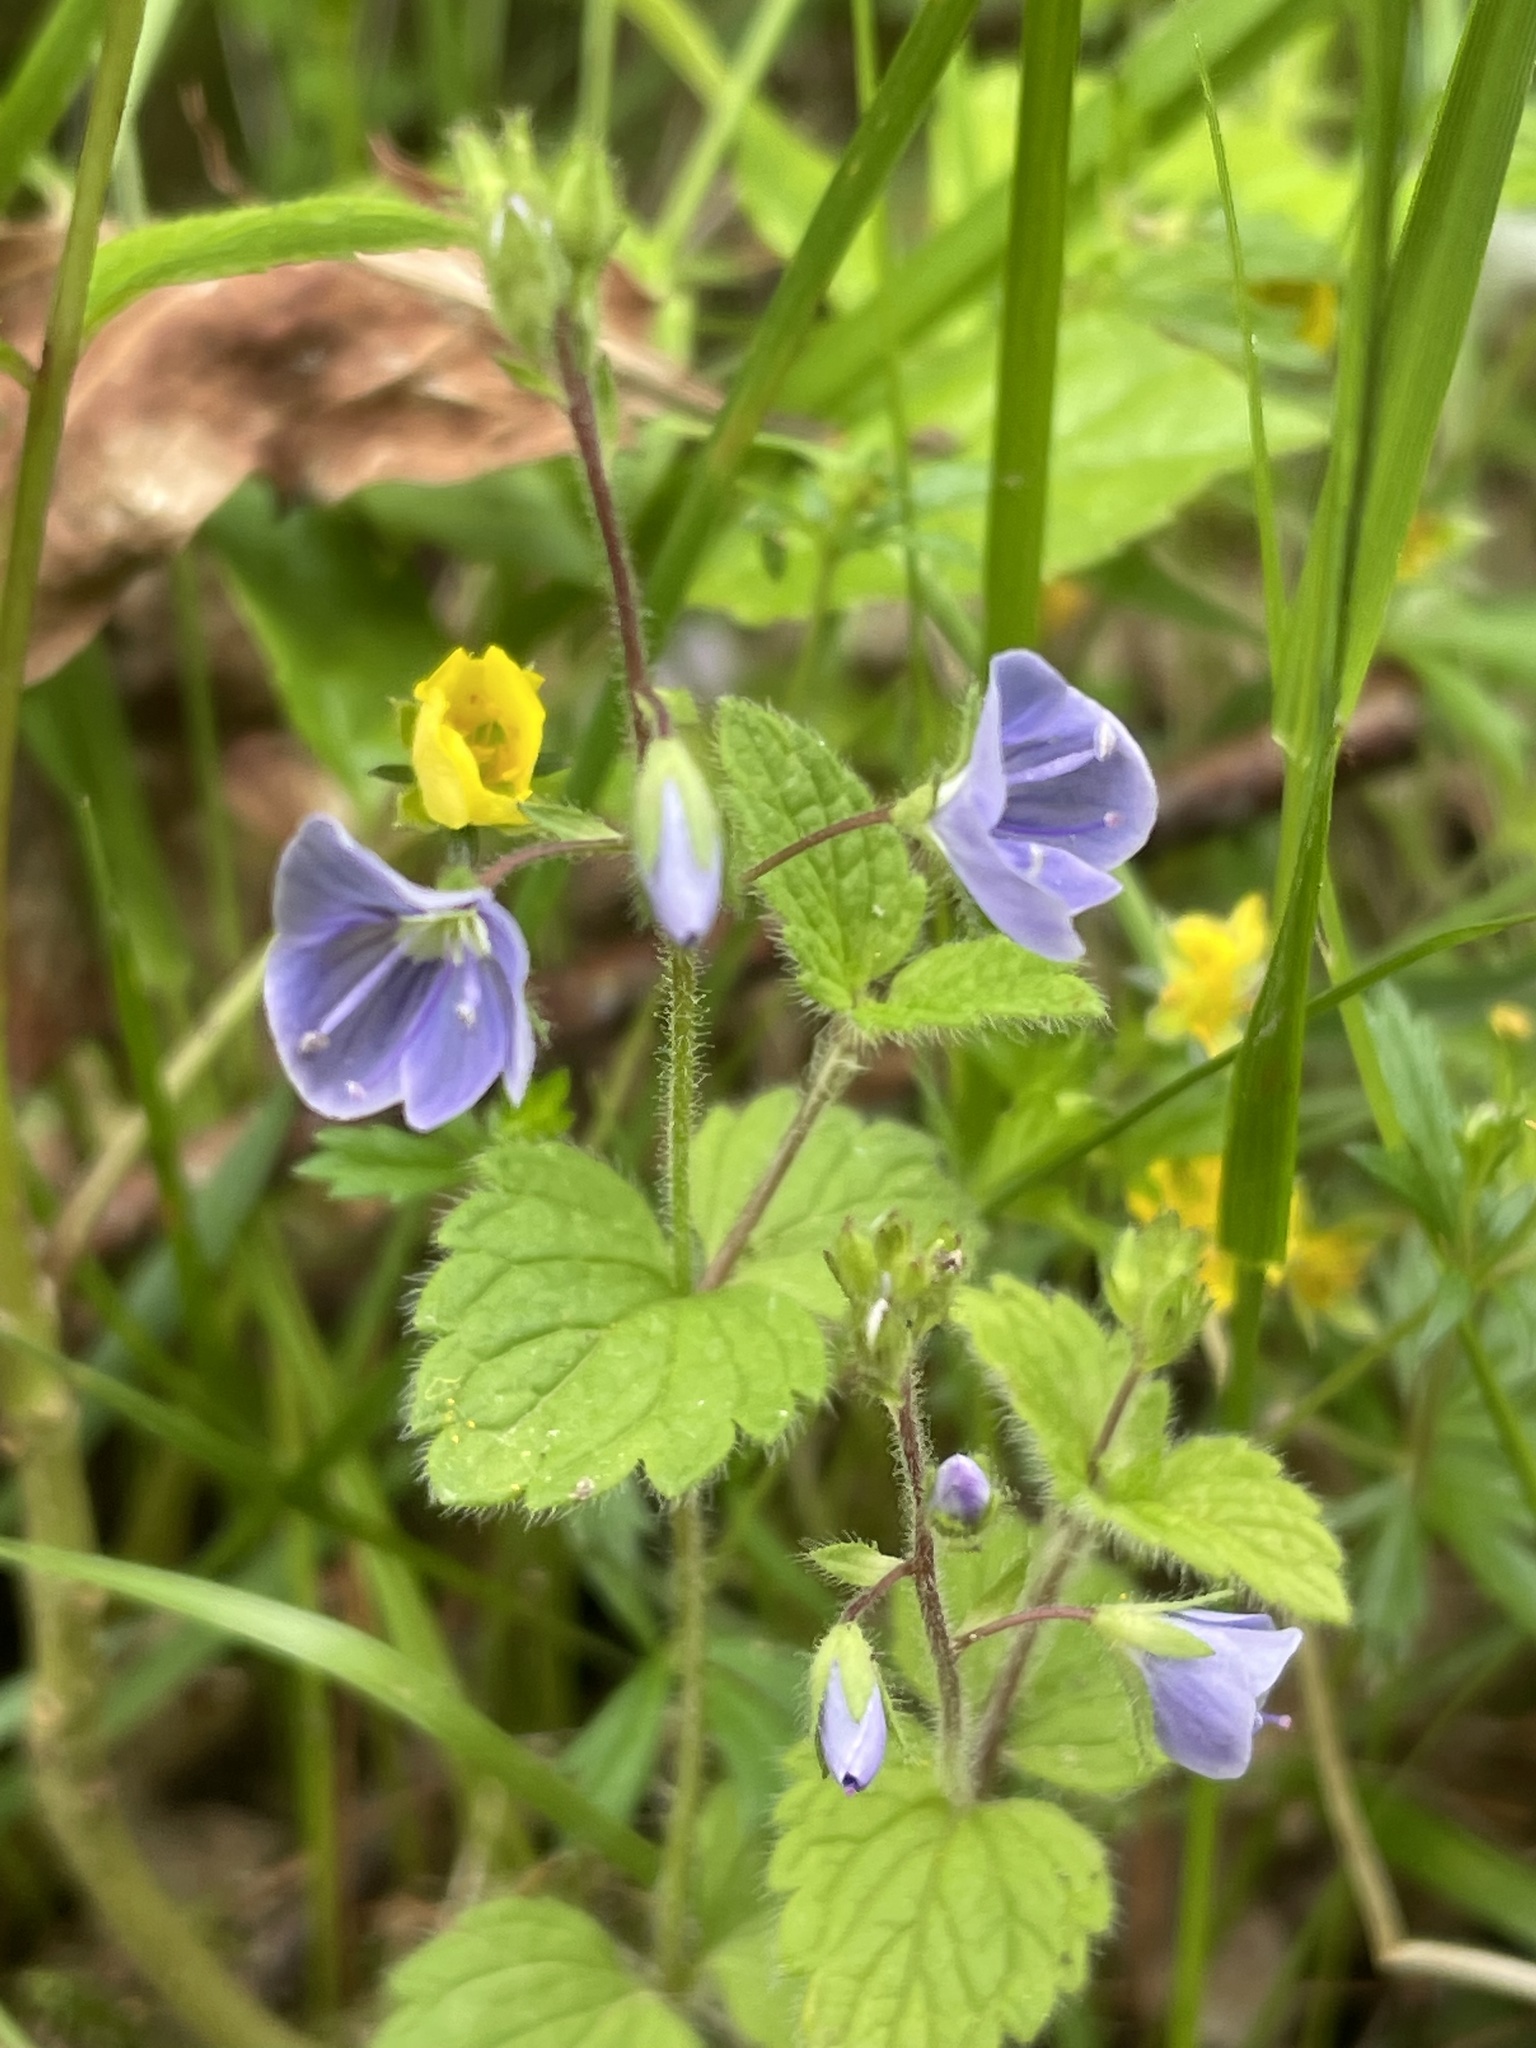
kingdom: Plantae
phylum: Tracheophyta
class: Magnoliopsida
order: Lamiales
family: Plantaginaceae
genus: Veronica
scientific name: Veronica chamaedrys
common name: Germander speedwell
